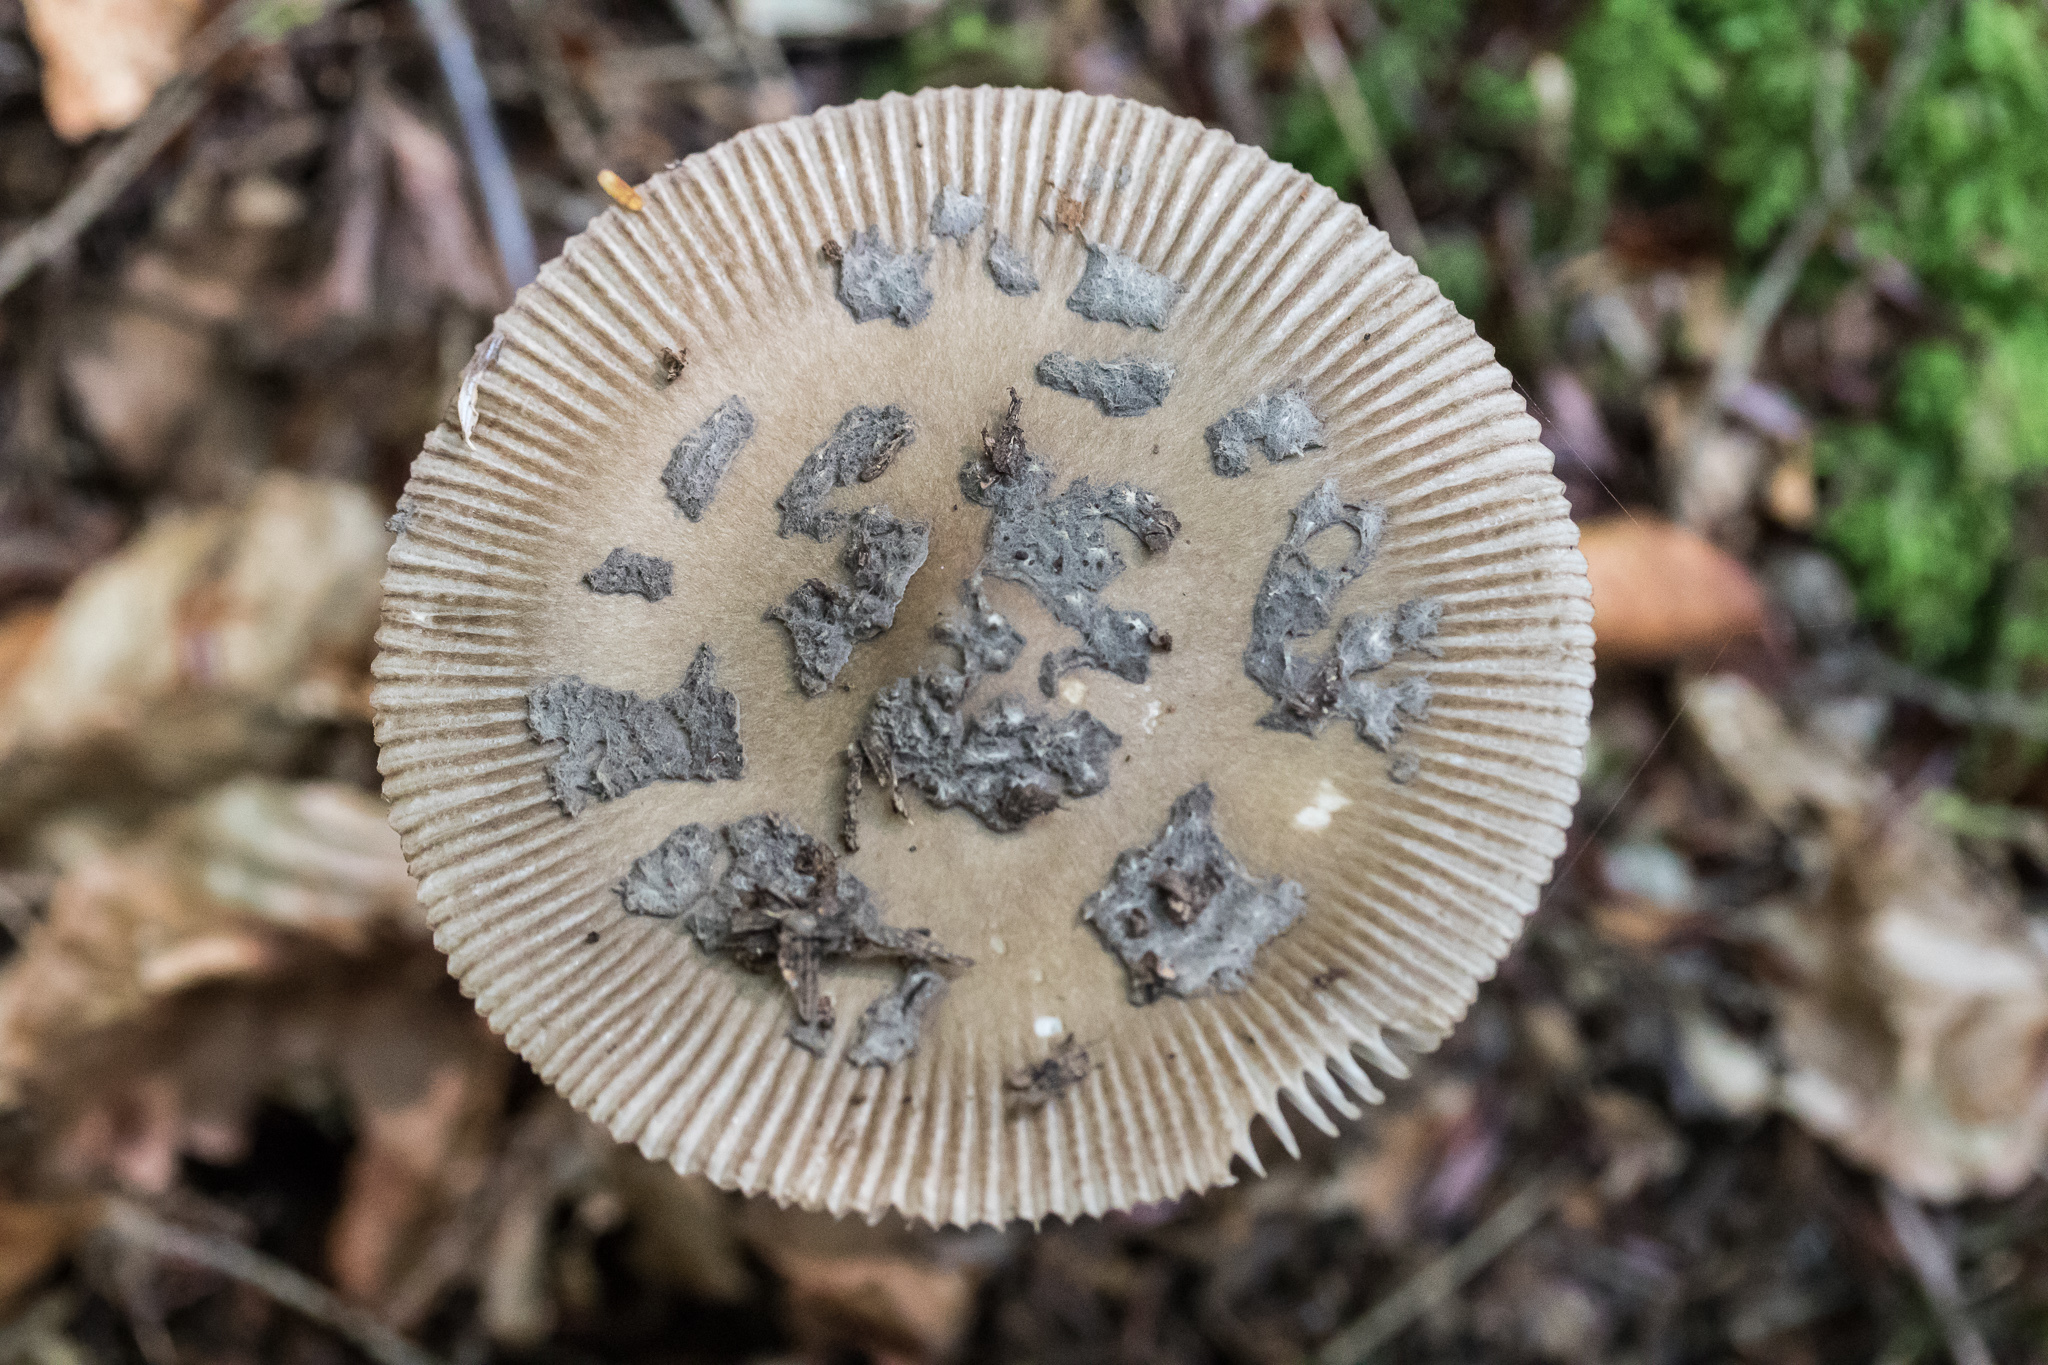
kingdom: Fungi
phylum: Basidiomycota
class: Agaricomycetes
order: Agaricales
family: Amanitaceae
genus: Amanita
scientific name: Amanita rhacopus
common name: Shaggy legged ringless amanita
